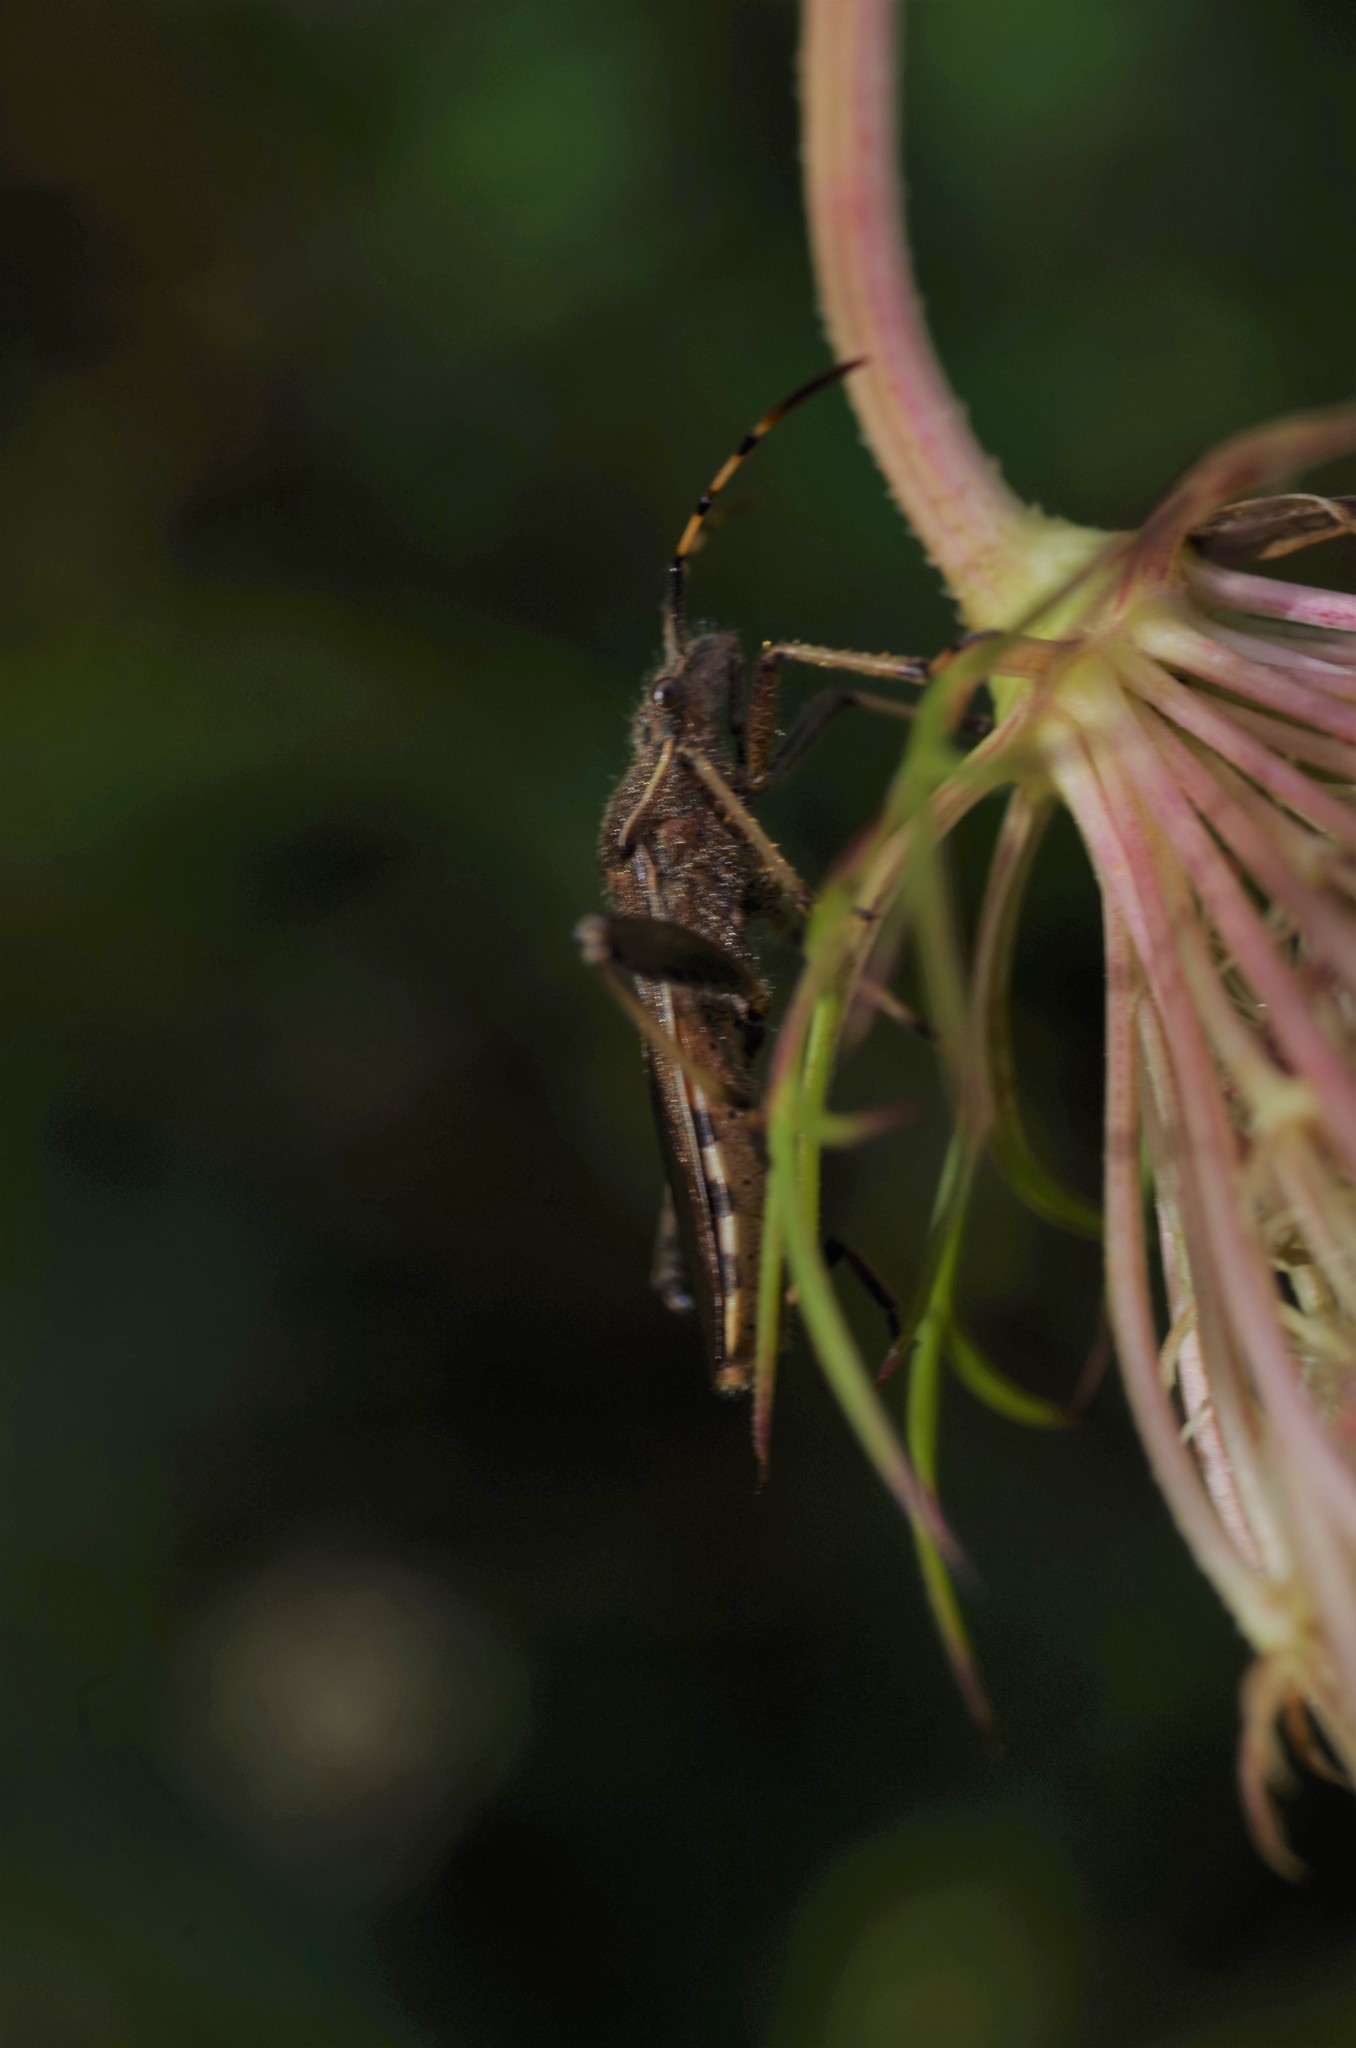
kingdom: Animalia
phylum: Arthropoda
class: Insecta
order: Hemiptera
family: Alydidae
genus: Camptopus
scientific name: Camptopus lateralis
